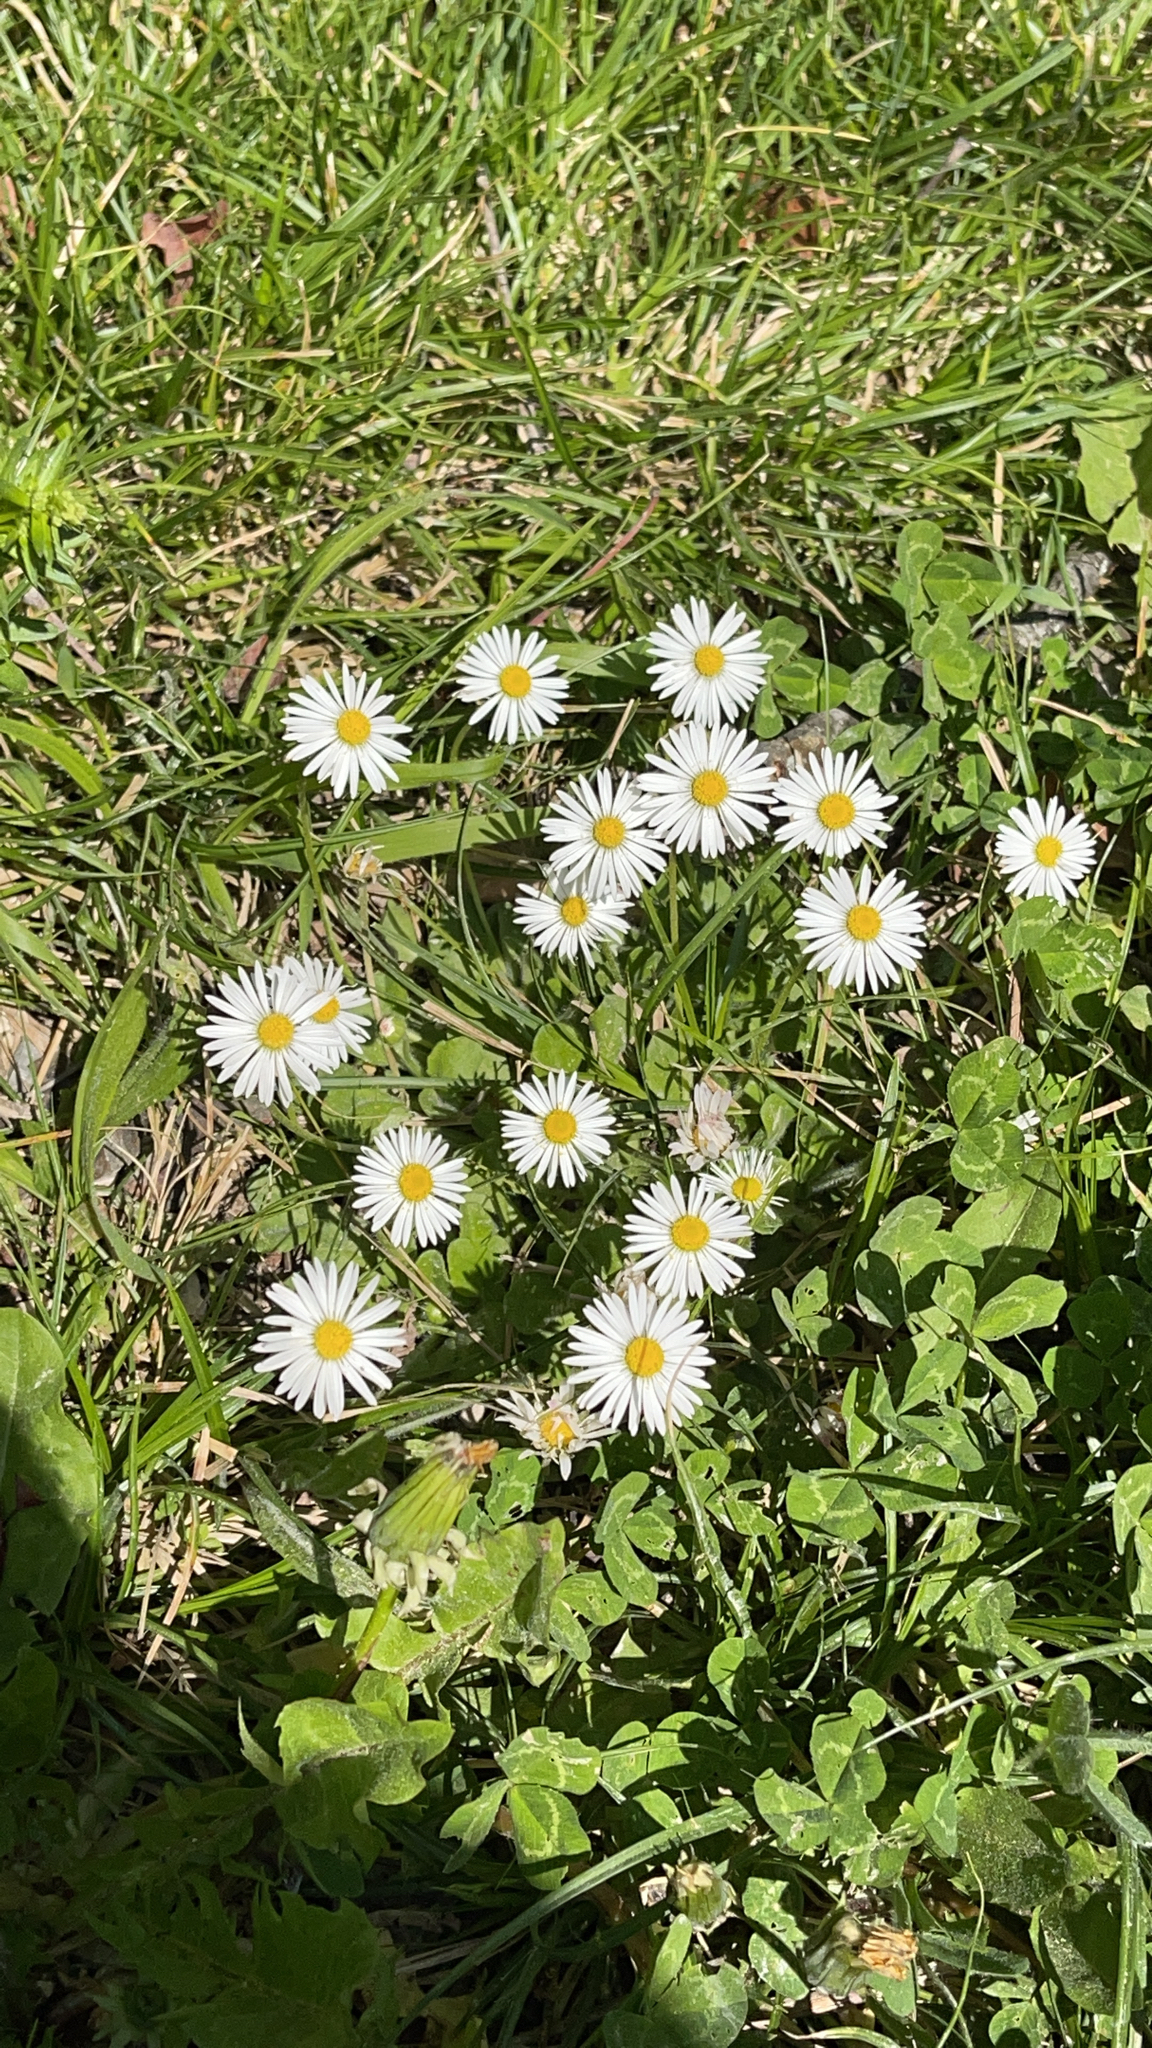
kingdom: Plantae
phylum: Tracheophyta
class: Magnoliopsida
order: Asterales
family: Asteraceae
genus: Bellis
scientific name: Bellis perennis
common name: Lawndaisy
